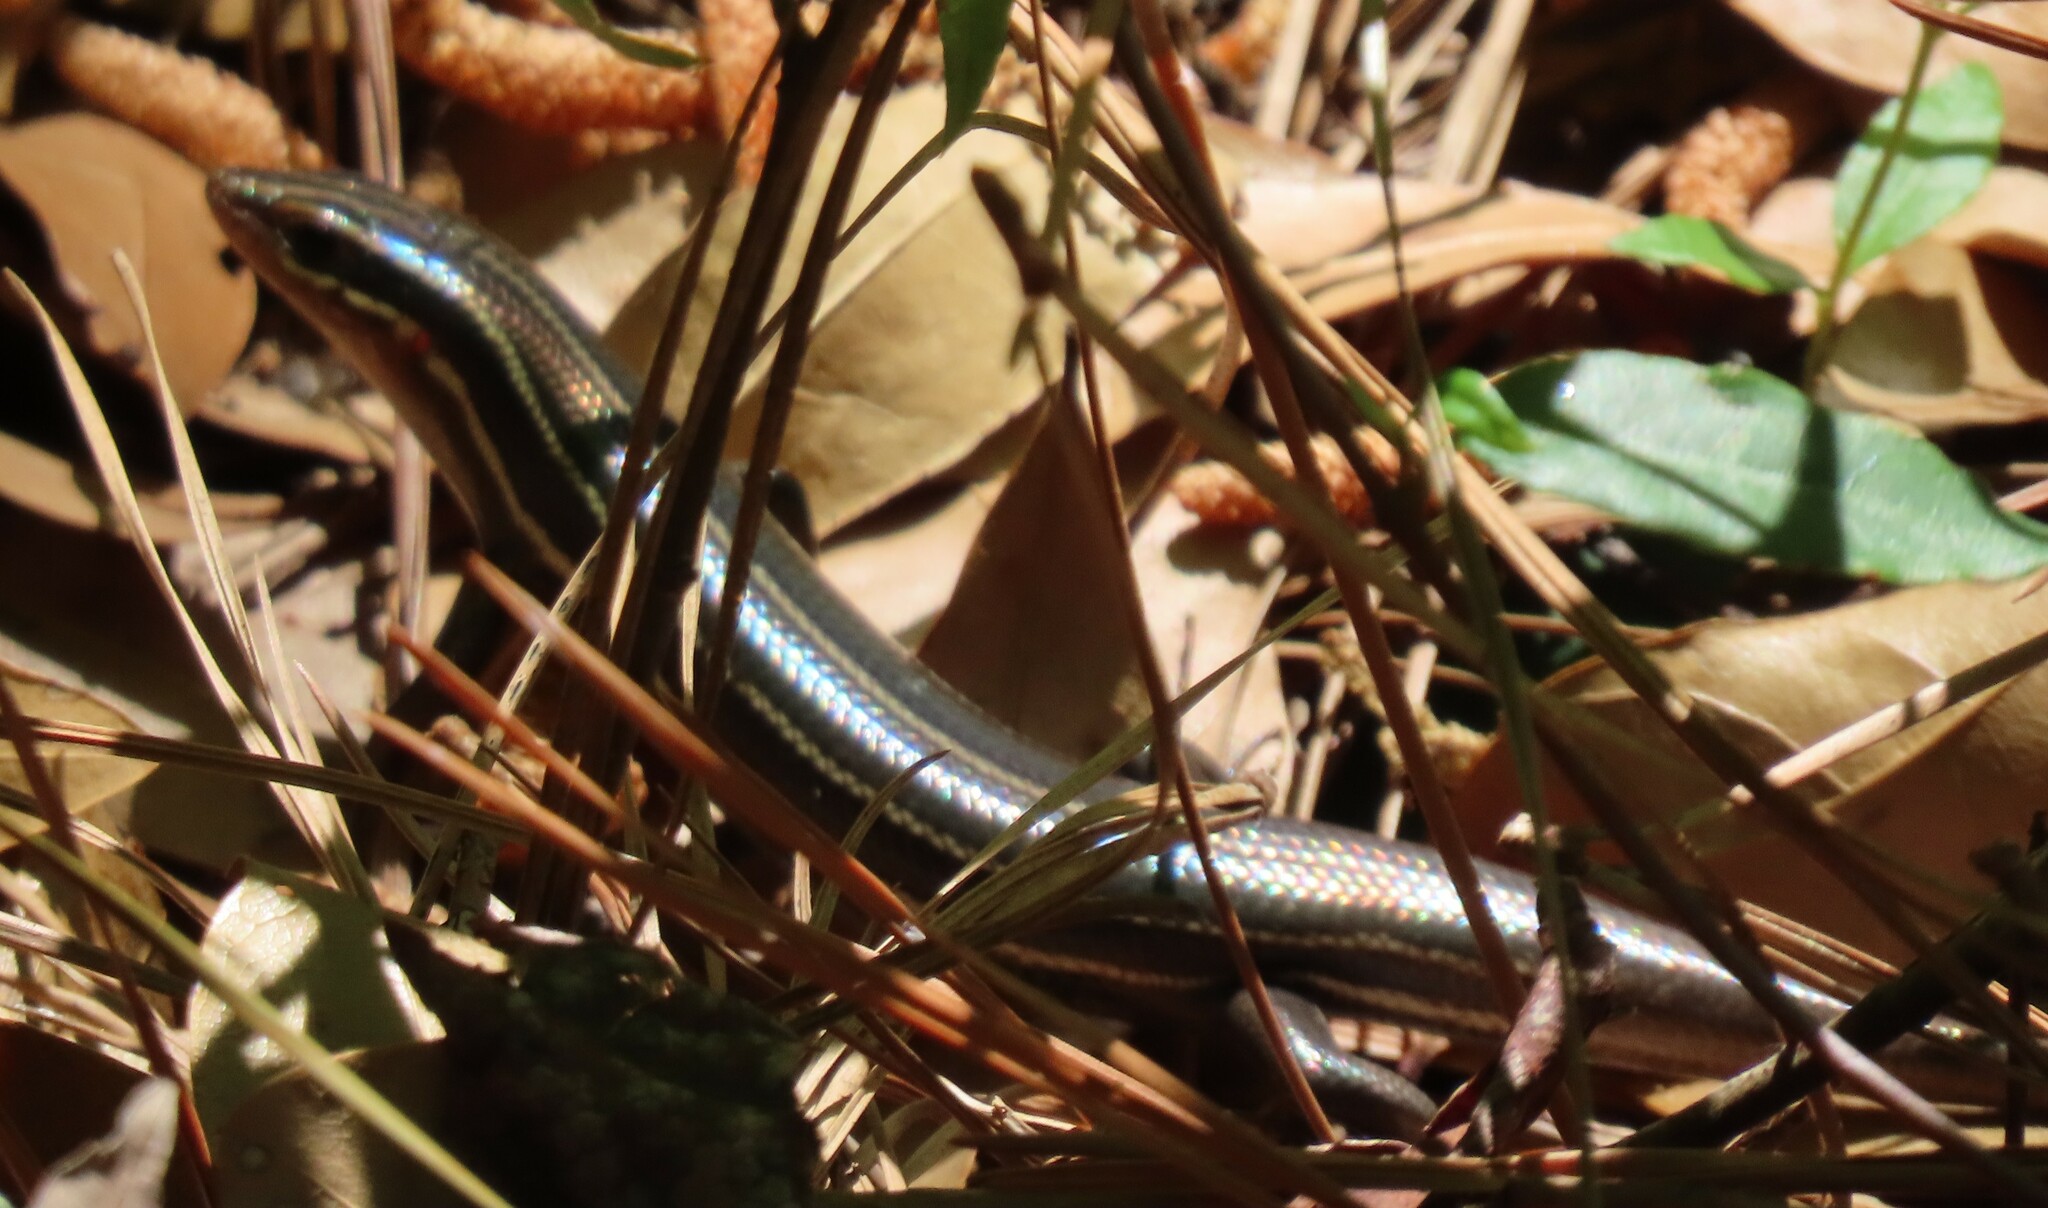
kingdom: Animalia
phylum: Chordata
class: Squamata
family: Scincidae
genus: Plestiodon
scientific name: Plestiodon inexpectatus
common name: Southeastern five-lined skink
